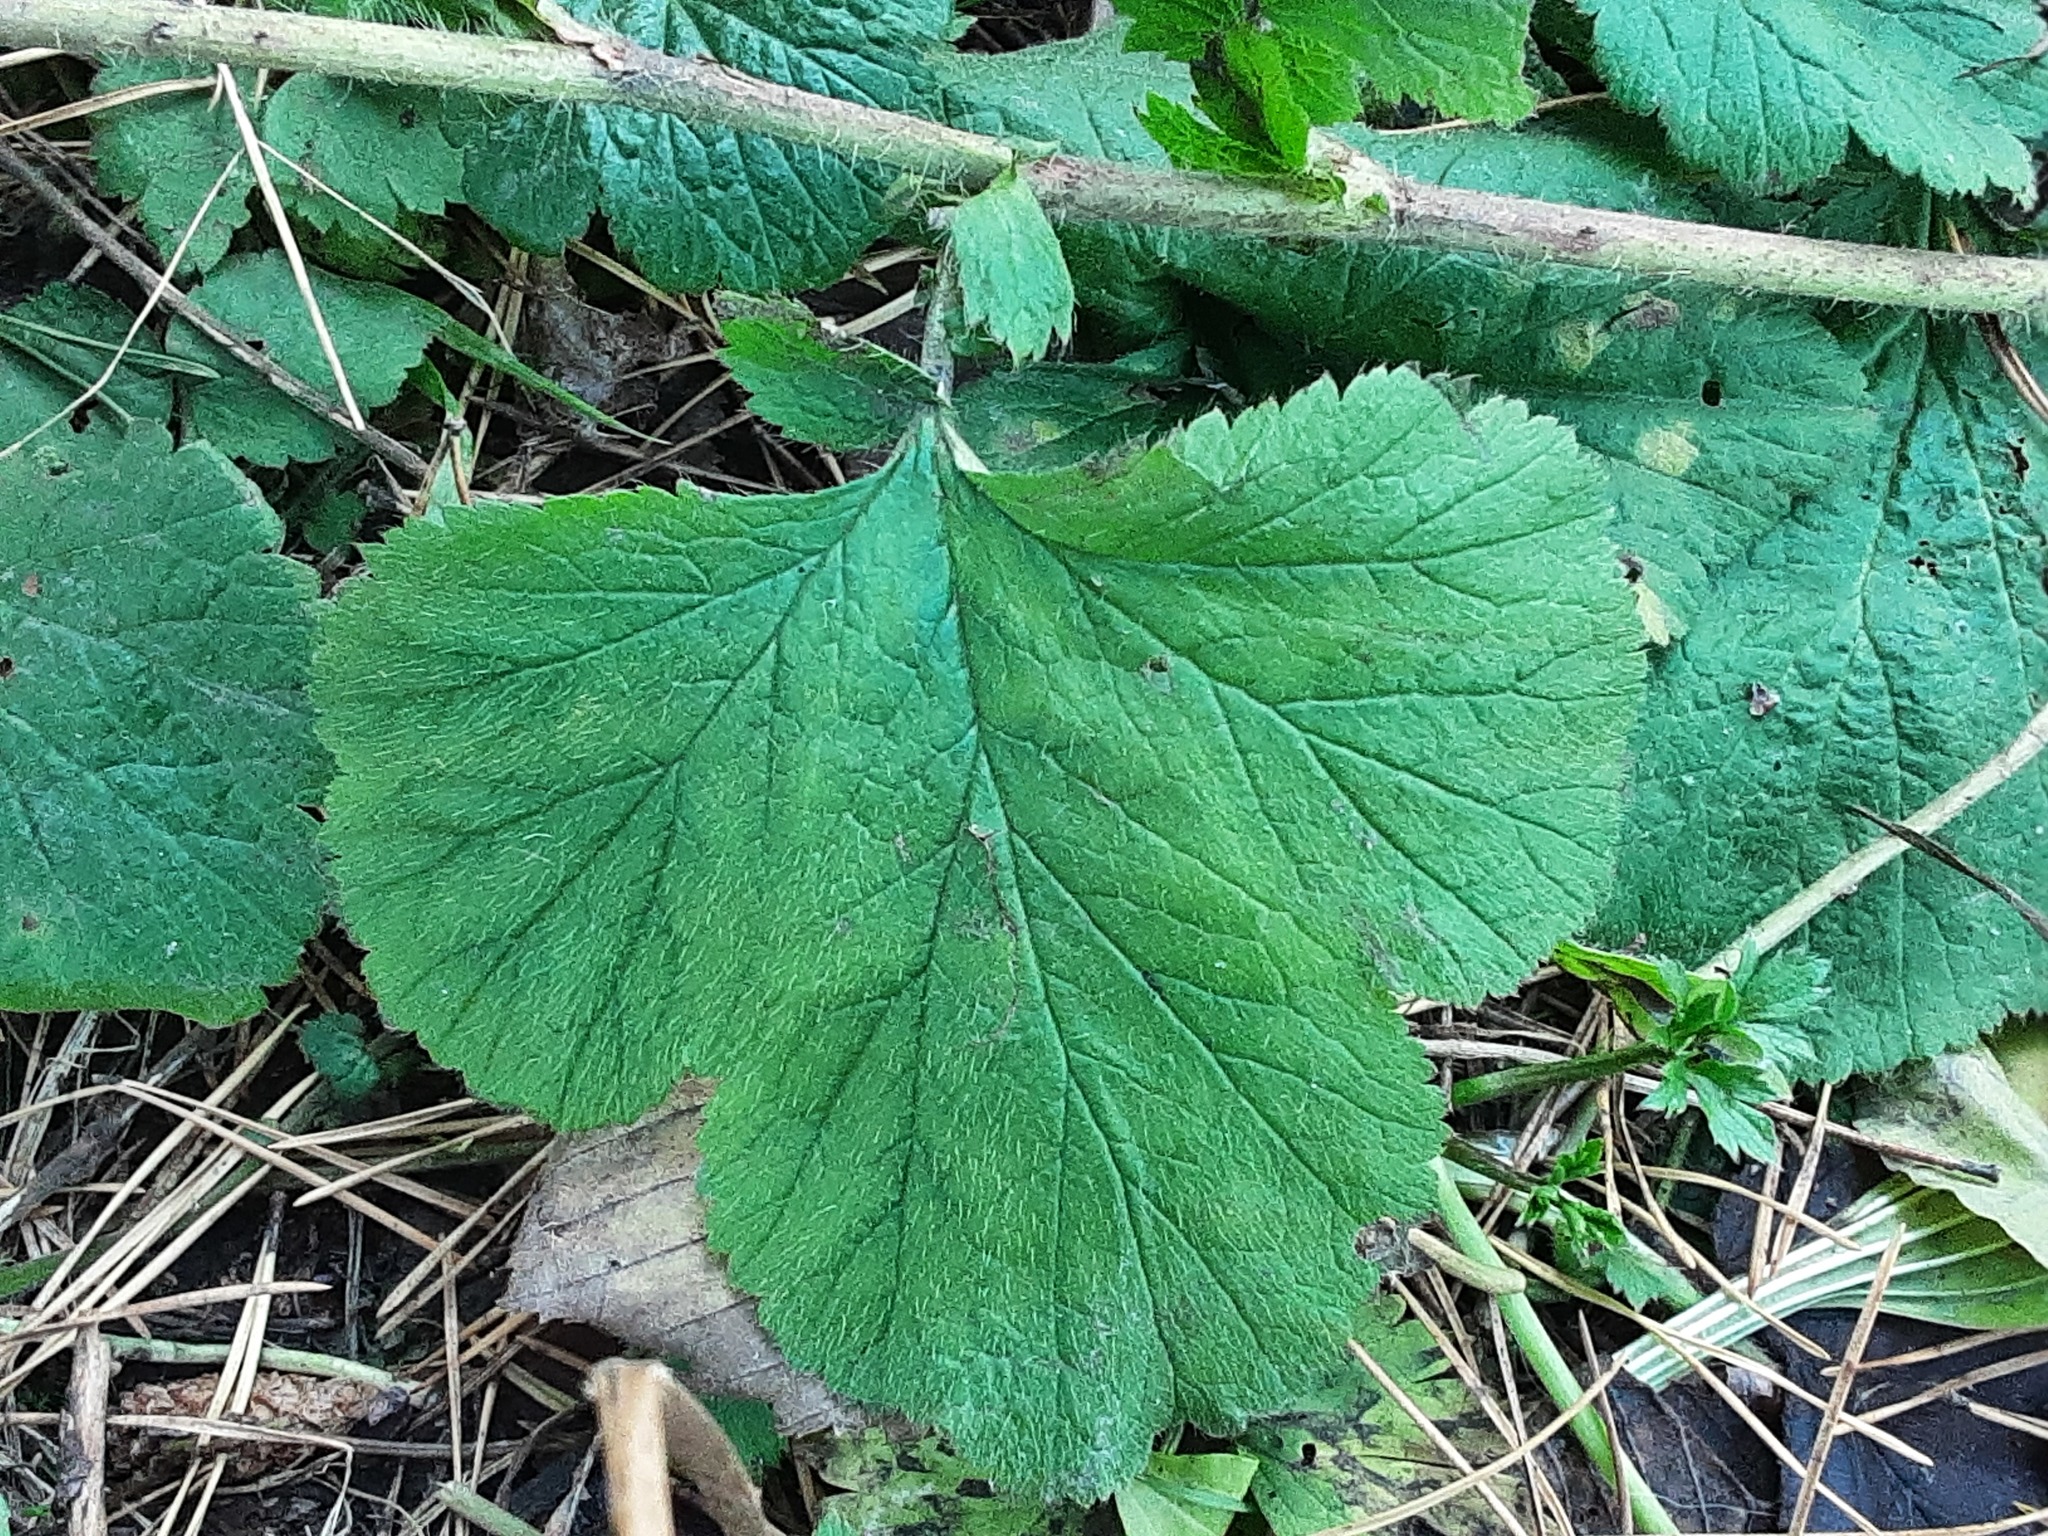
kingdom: Plantae
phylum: Tracheophyta
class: Magnoliopsida
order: Rosales
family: Rosaceae
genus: Geum
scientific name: Geum urbanum
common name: Wood avens
